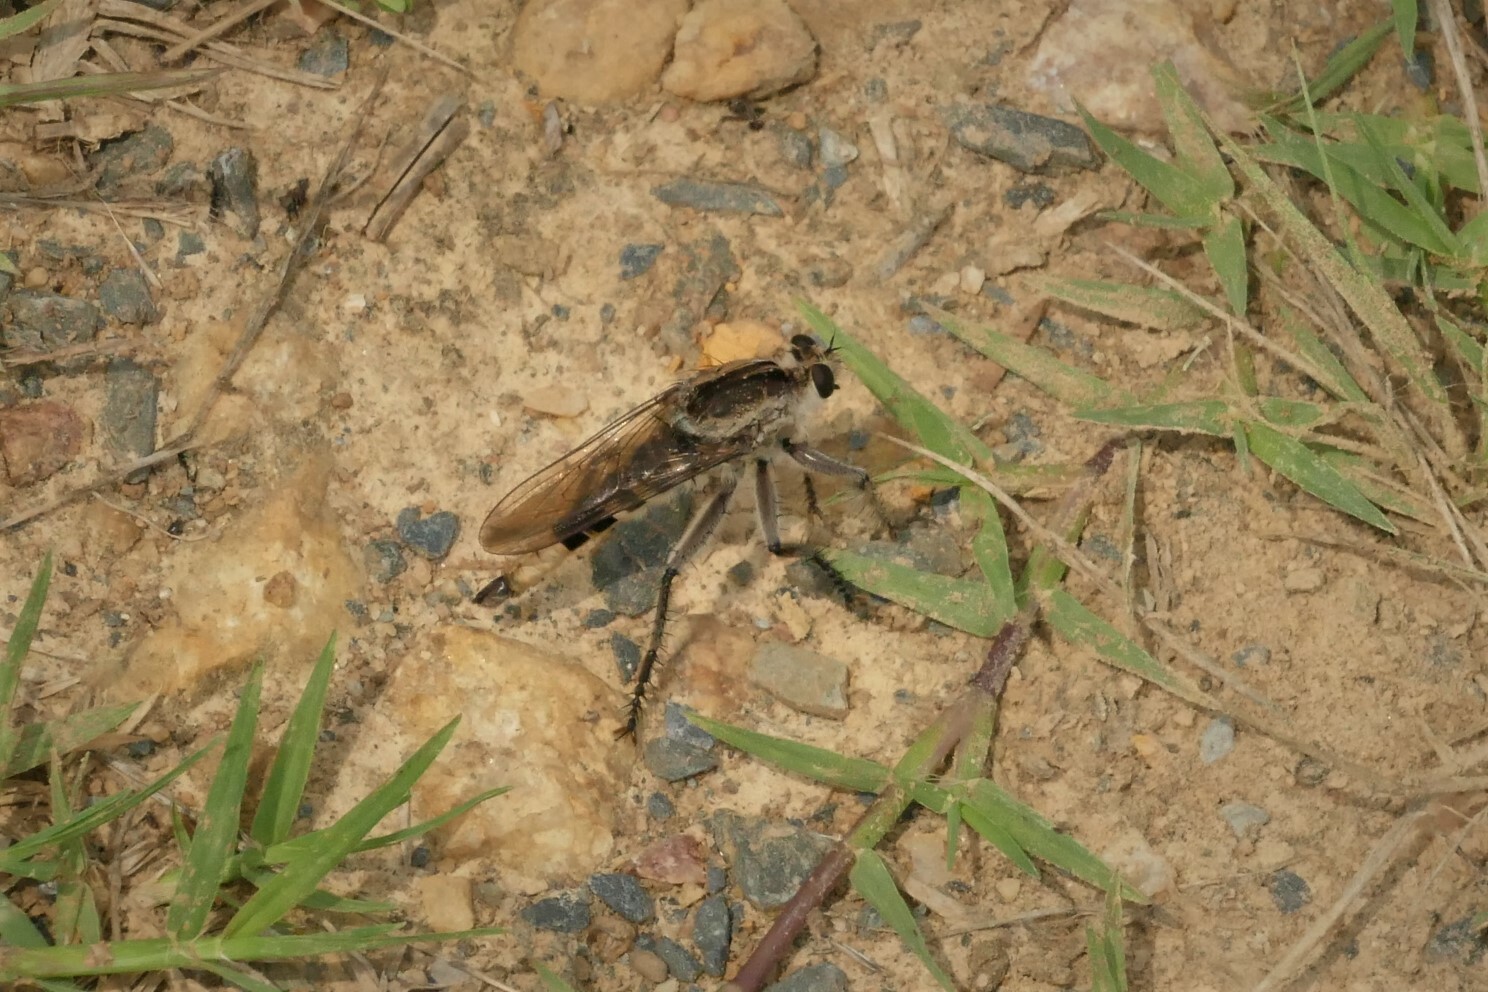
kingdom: Animalia
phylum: Arthropoda
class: Insecta
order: Diptera
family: Asilidae
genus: Triorla
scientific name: Triorla interrupta
